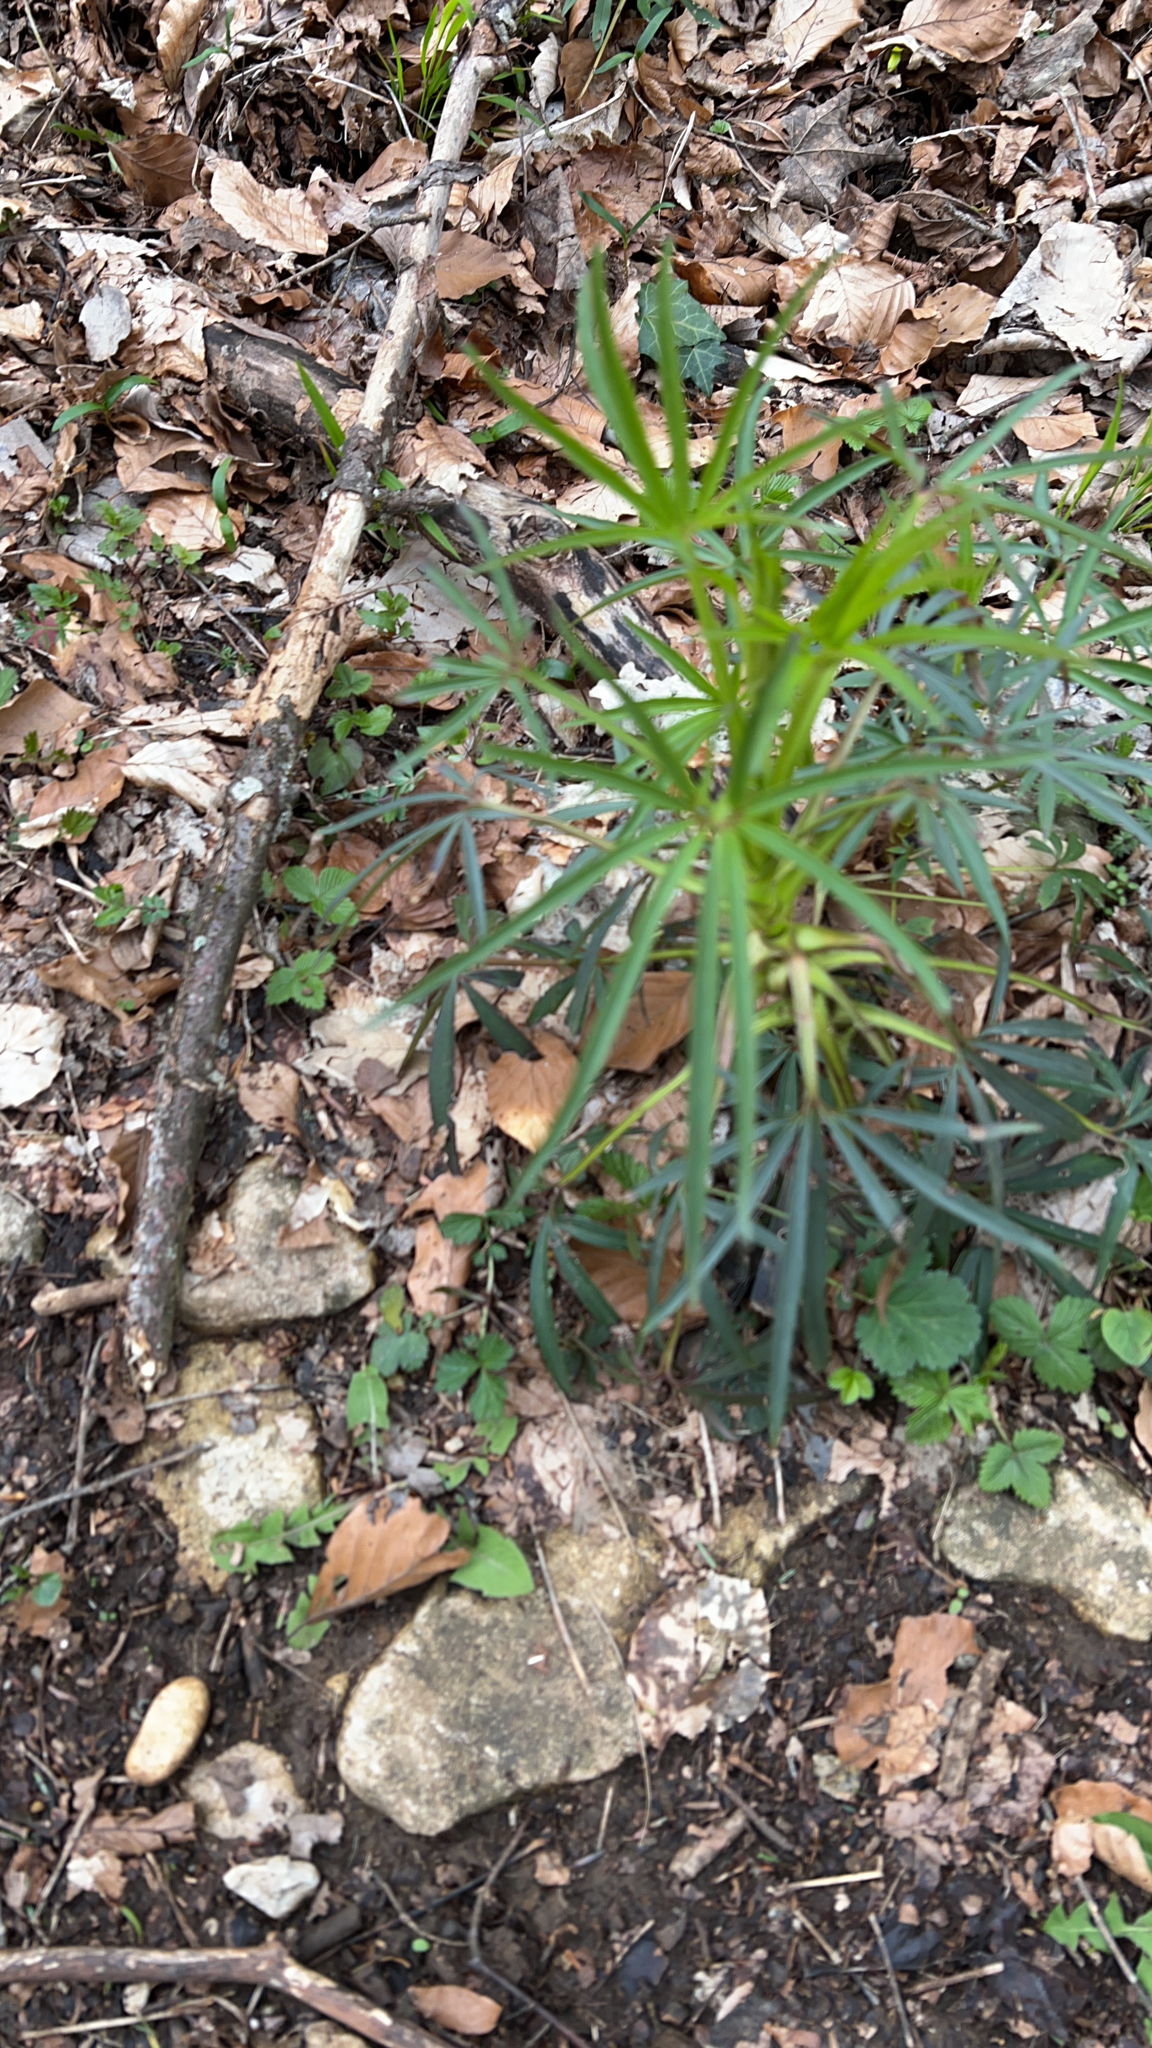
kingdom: Plantae
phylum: Tracheophyta
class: Magnoliopsida
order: Ranunculales
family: Ranunculaceae
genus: Helleborus
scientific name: Helleborus foetidus
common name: Stinking hellebore
